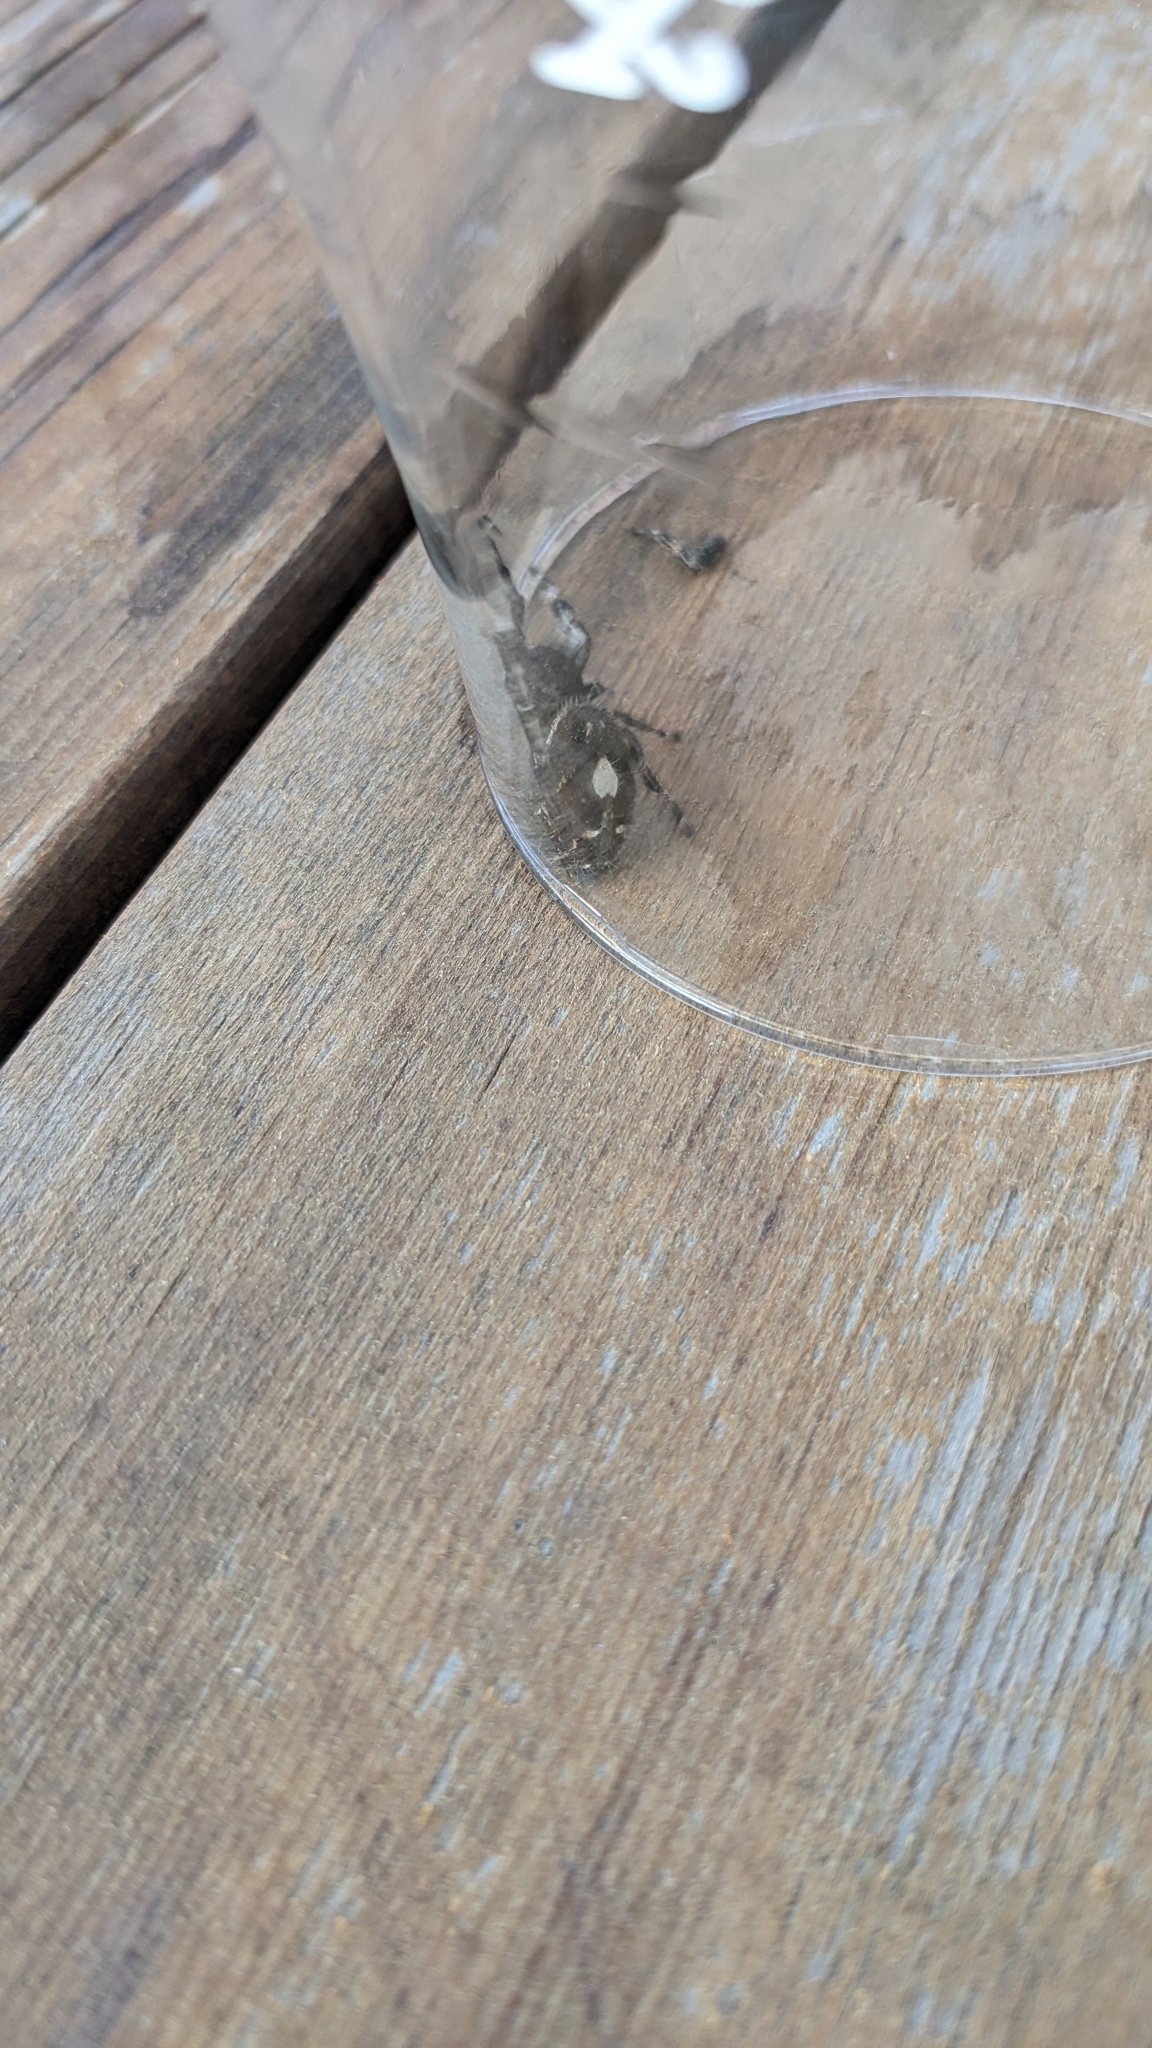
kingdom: Animalia
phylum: Arthropoda
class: Arachnida
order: Araneae
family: Salticidae
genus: Phidippus
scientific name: Phidippus audax
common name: Bold jumper
